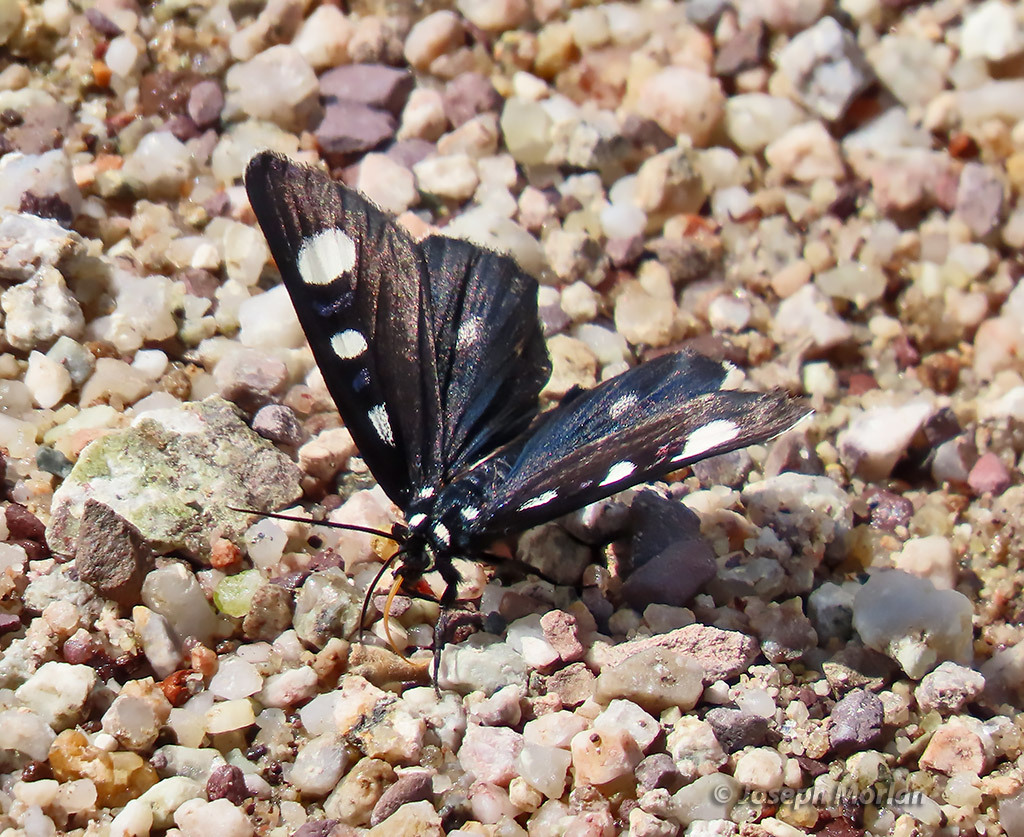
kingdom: Animalia
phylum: Arthropoda
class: Insecta
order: Lepidoptera
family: Noctuidae
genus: Alypiodes
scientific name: Alypiodes bimaculata
